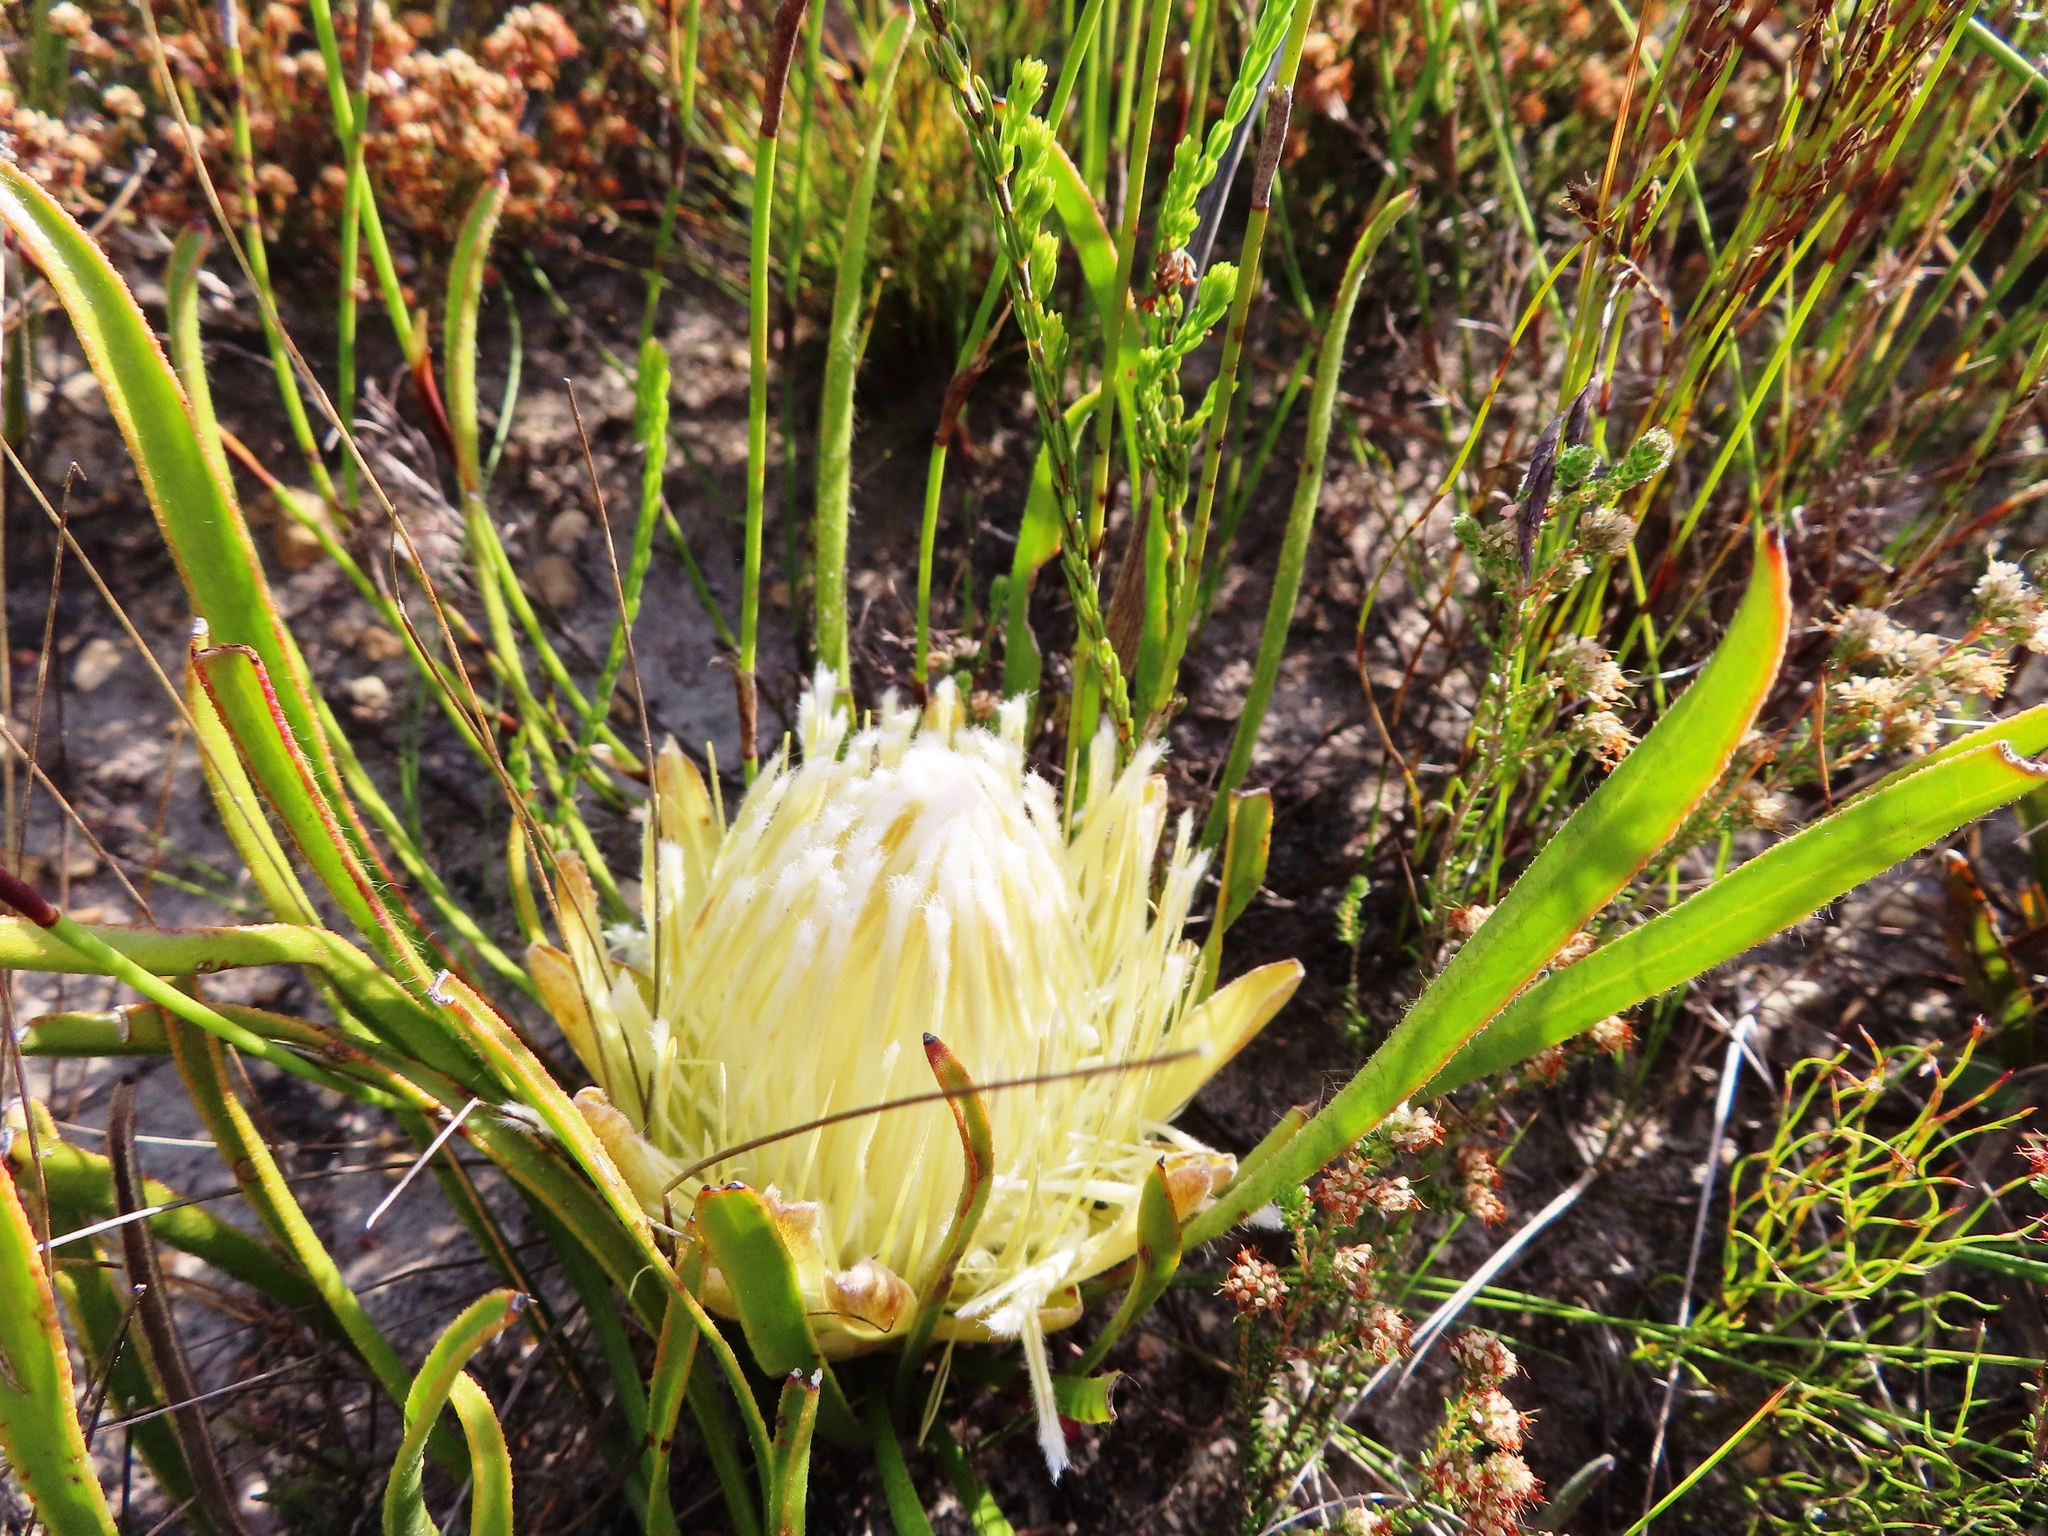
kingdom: Plantae
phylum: Tracheophyta
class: Magnoliopsida
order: Proteales
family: Proteaceae
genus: Protea
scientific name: Protea aspera
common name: Rough-leaf sugarbush
